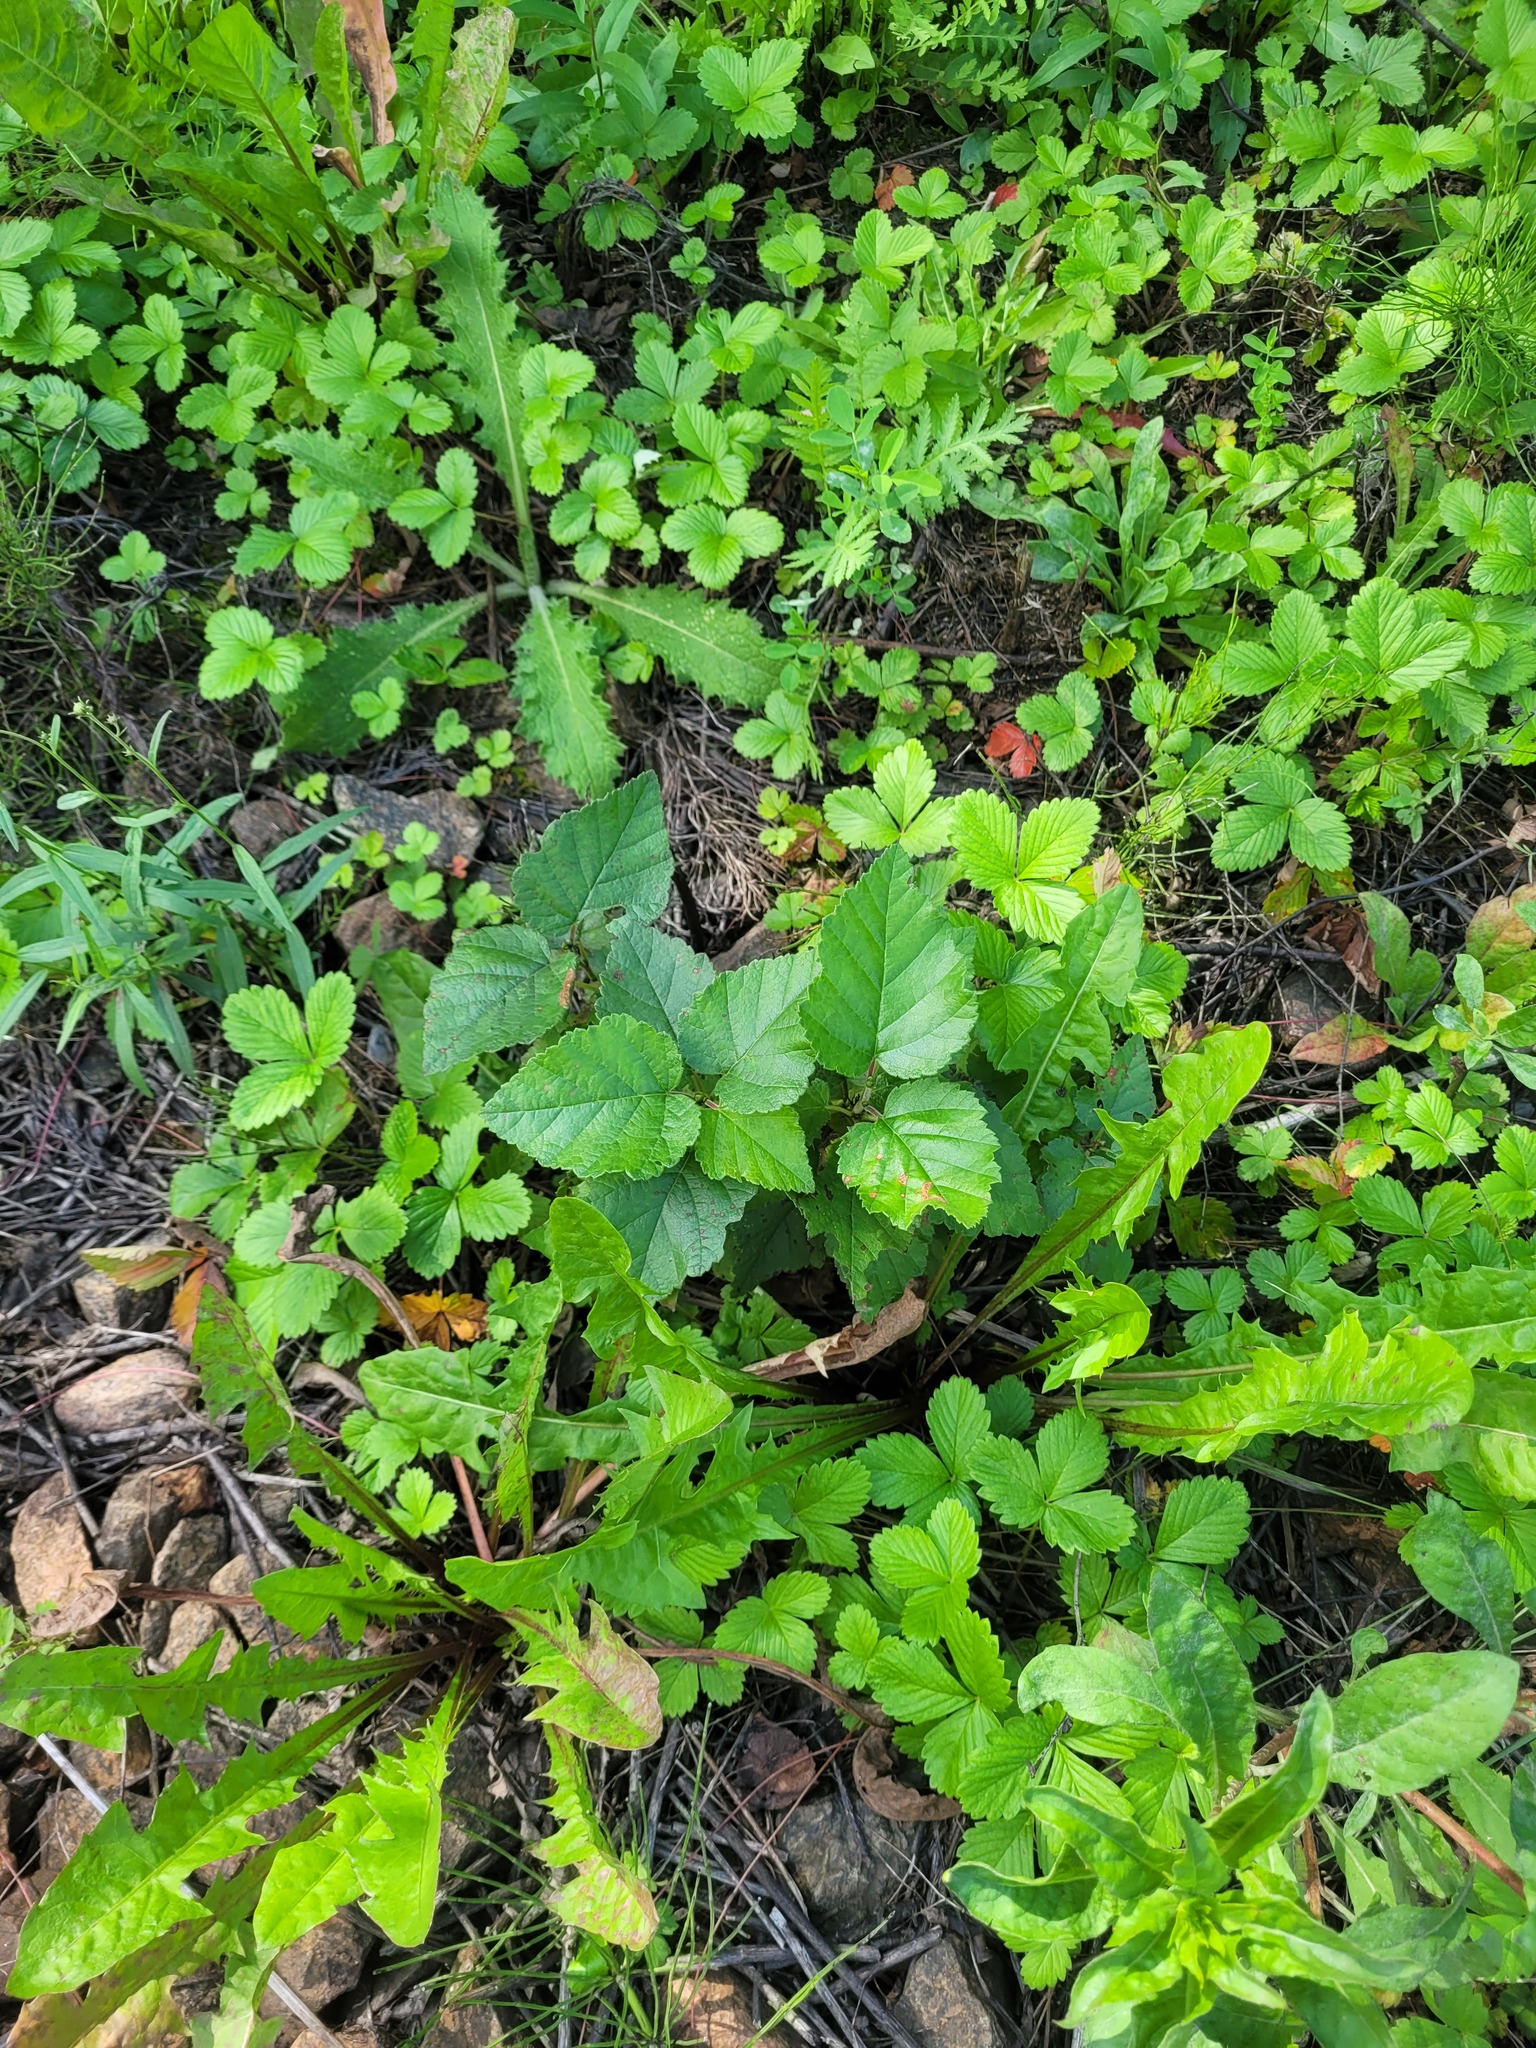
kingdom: Plantae
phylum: Tracheophyta
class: Magnoliopsida
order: Fagales
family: Betulaceae
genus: Betula
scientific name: Betula pubescens
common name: Downy birch
